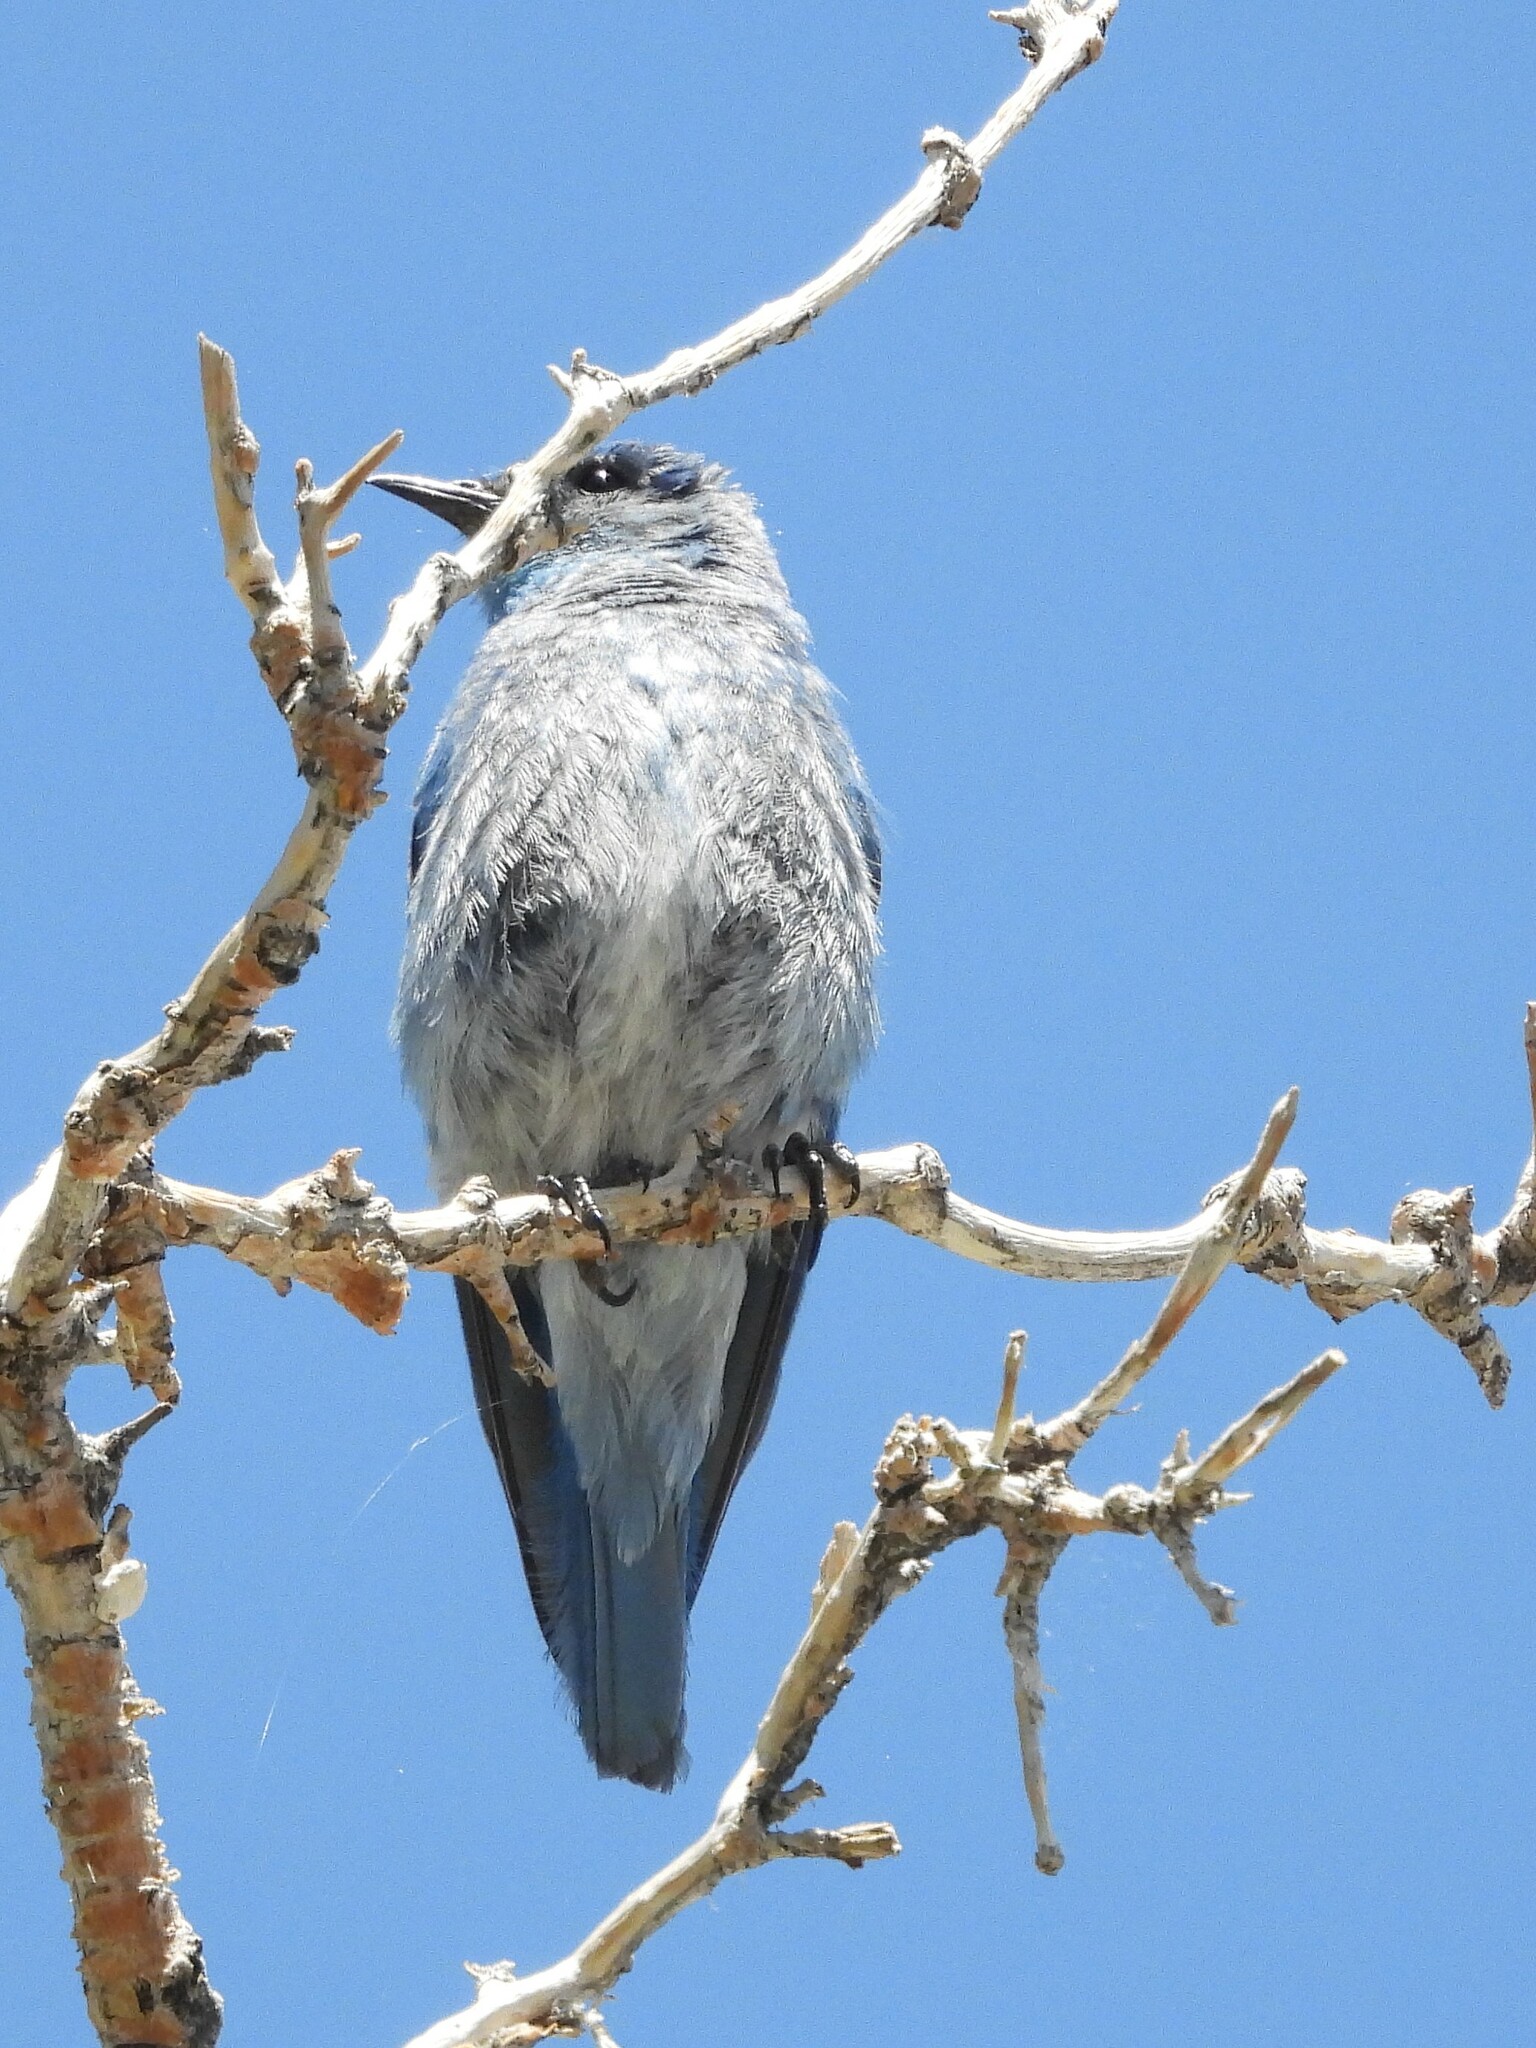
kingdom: Animalia
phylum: Chordata
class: Aves
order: Passeriformes
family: Turdidae
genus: Sialia
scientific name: Sialia currucoides
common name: Mountain bluebird
